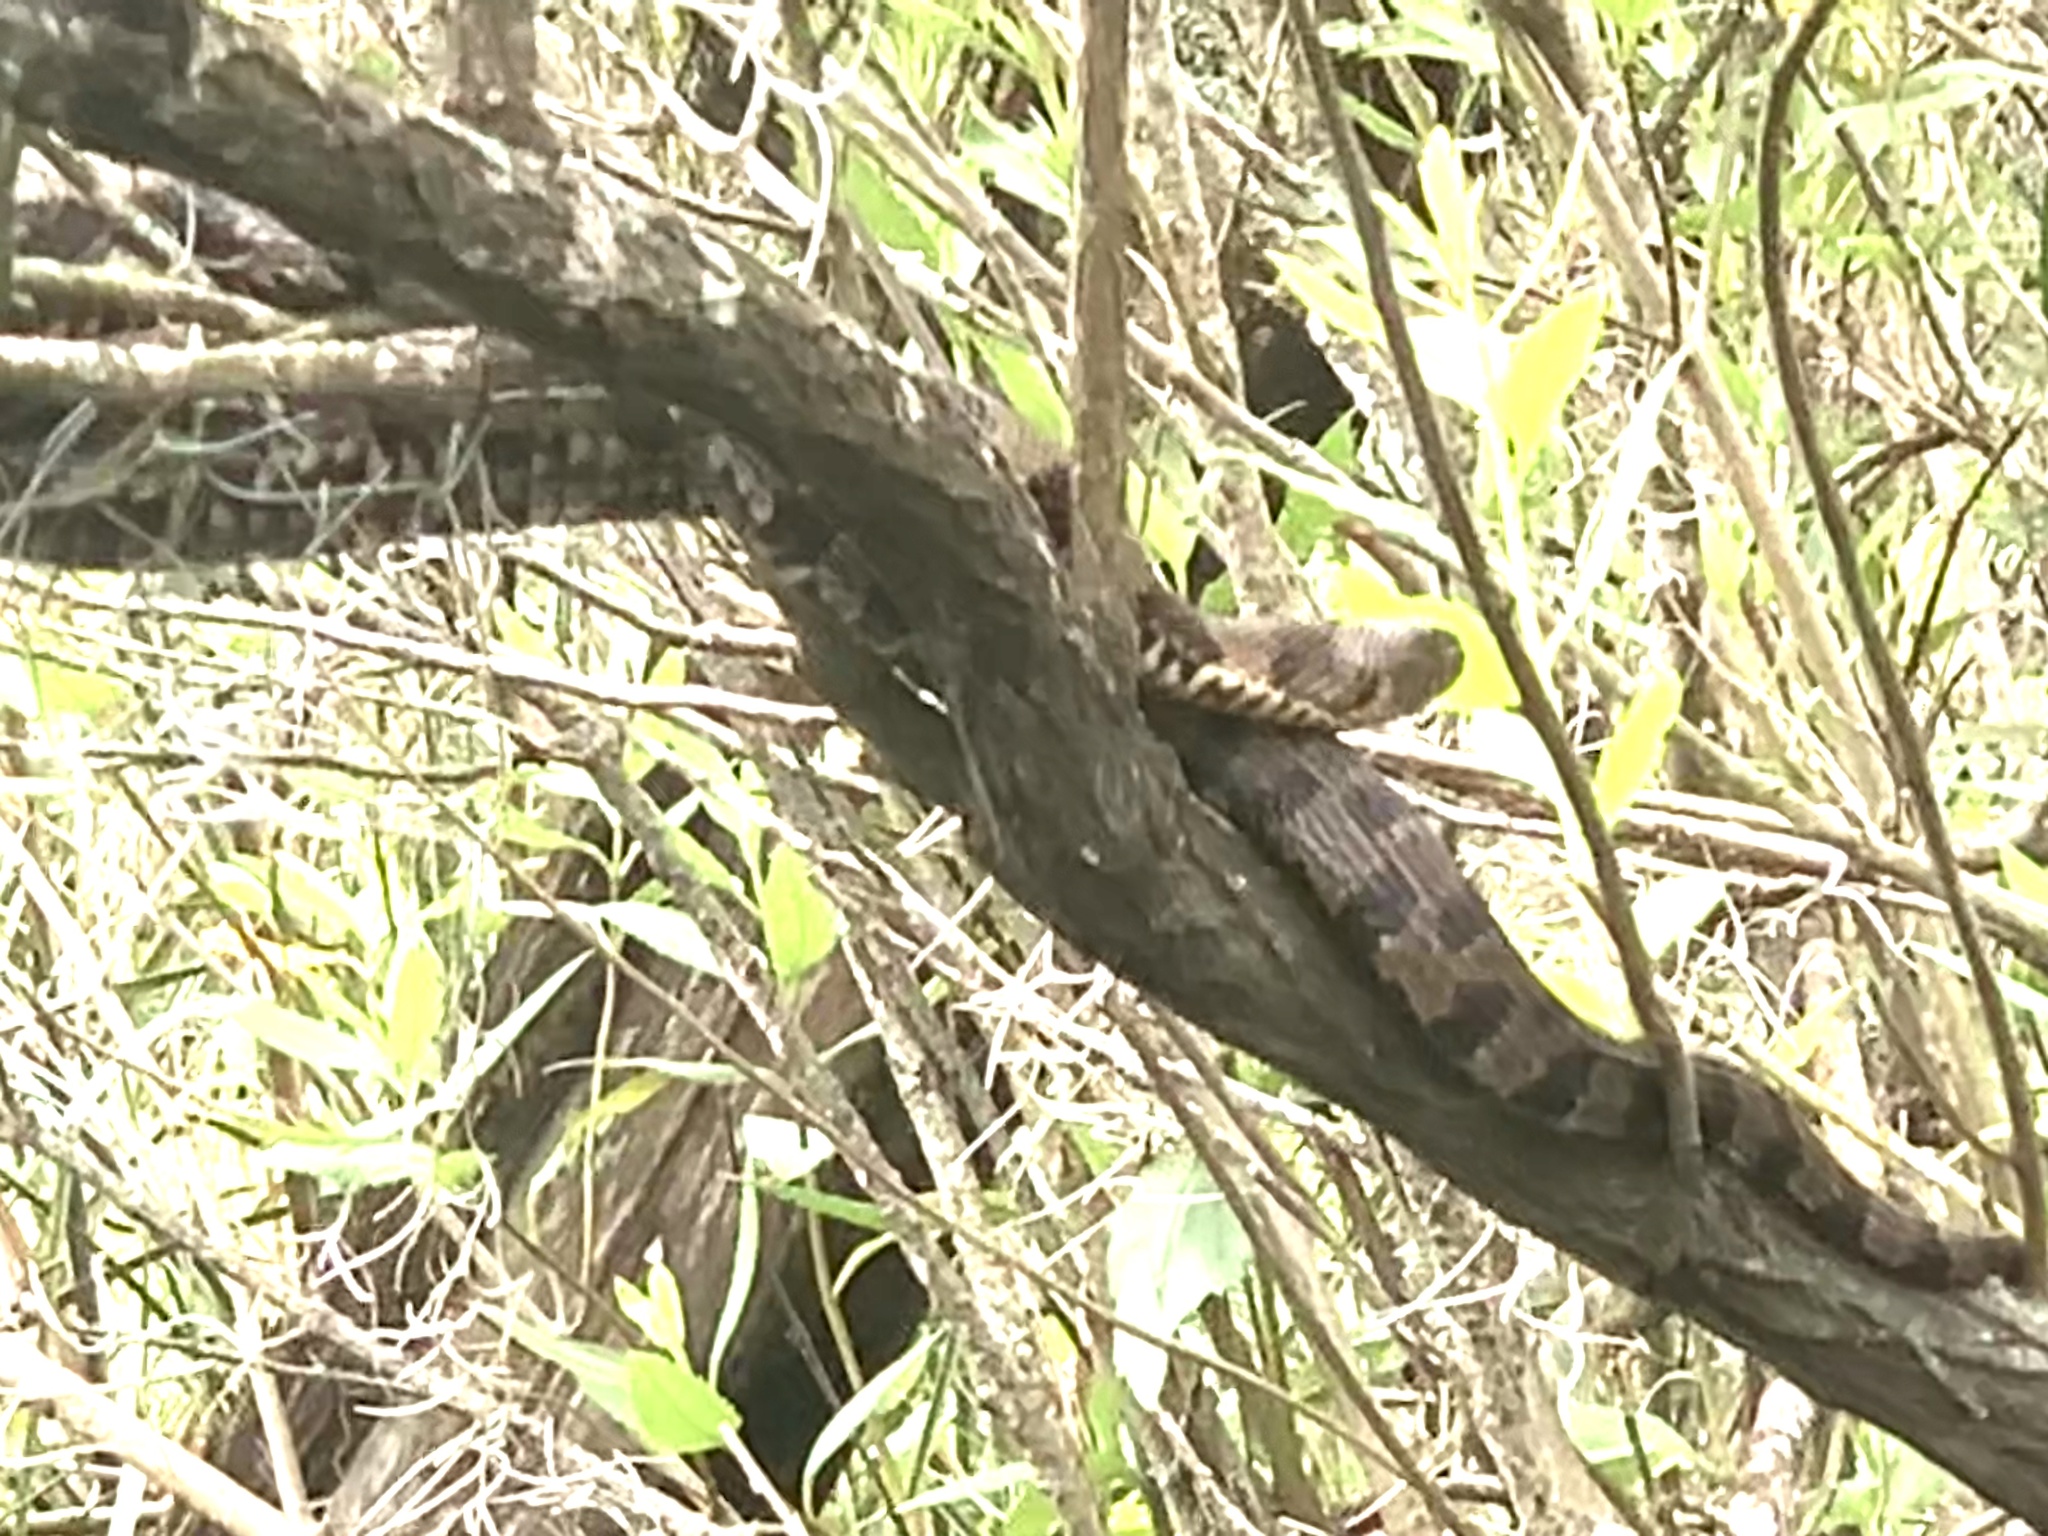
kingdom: Animalia
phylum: Chordata
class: Squamata
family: Colubridae
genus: Nerodia
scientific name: Nerodia taxispilota
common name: Brown water snake
